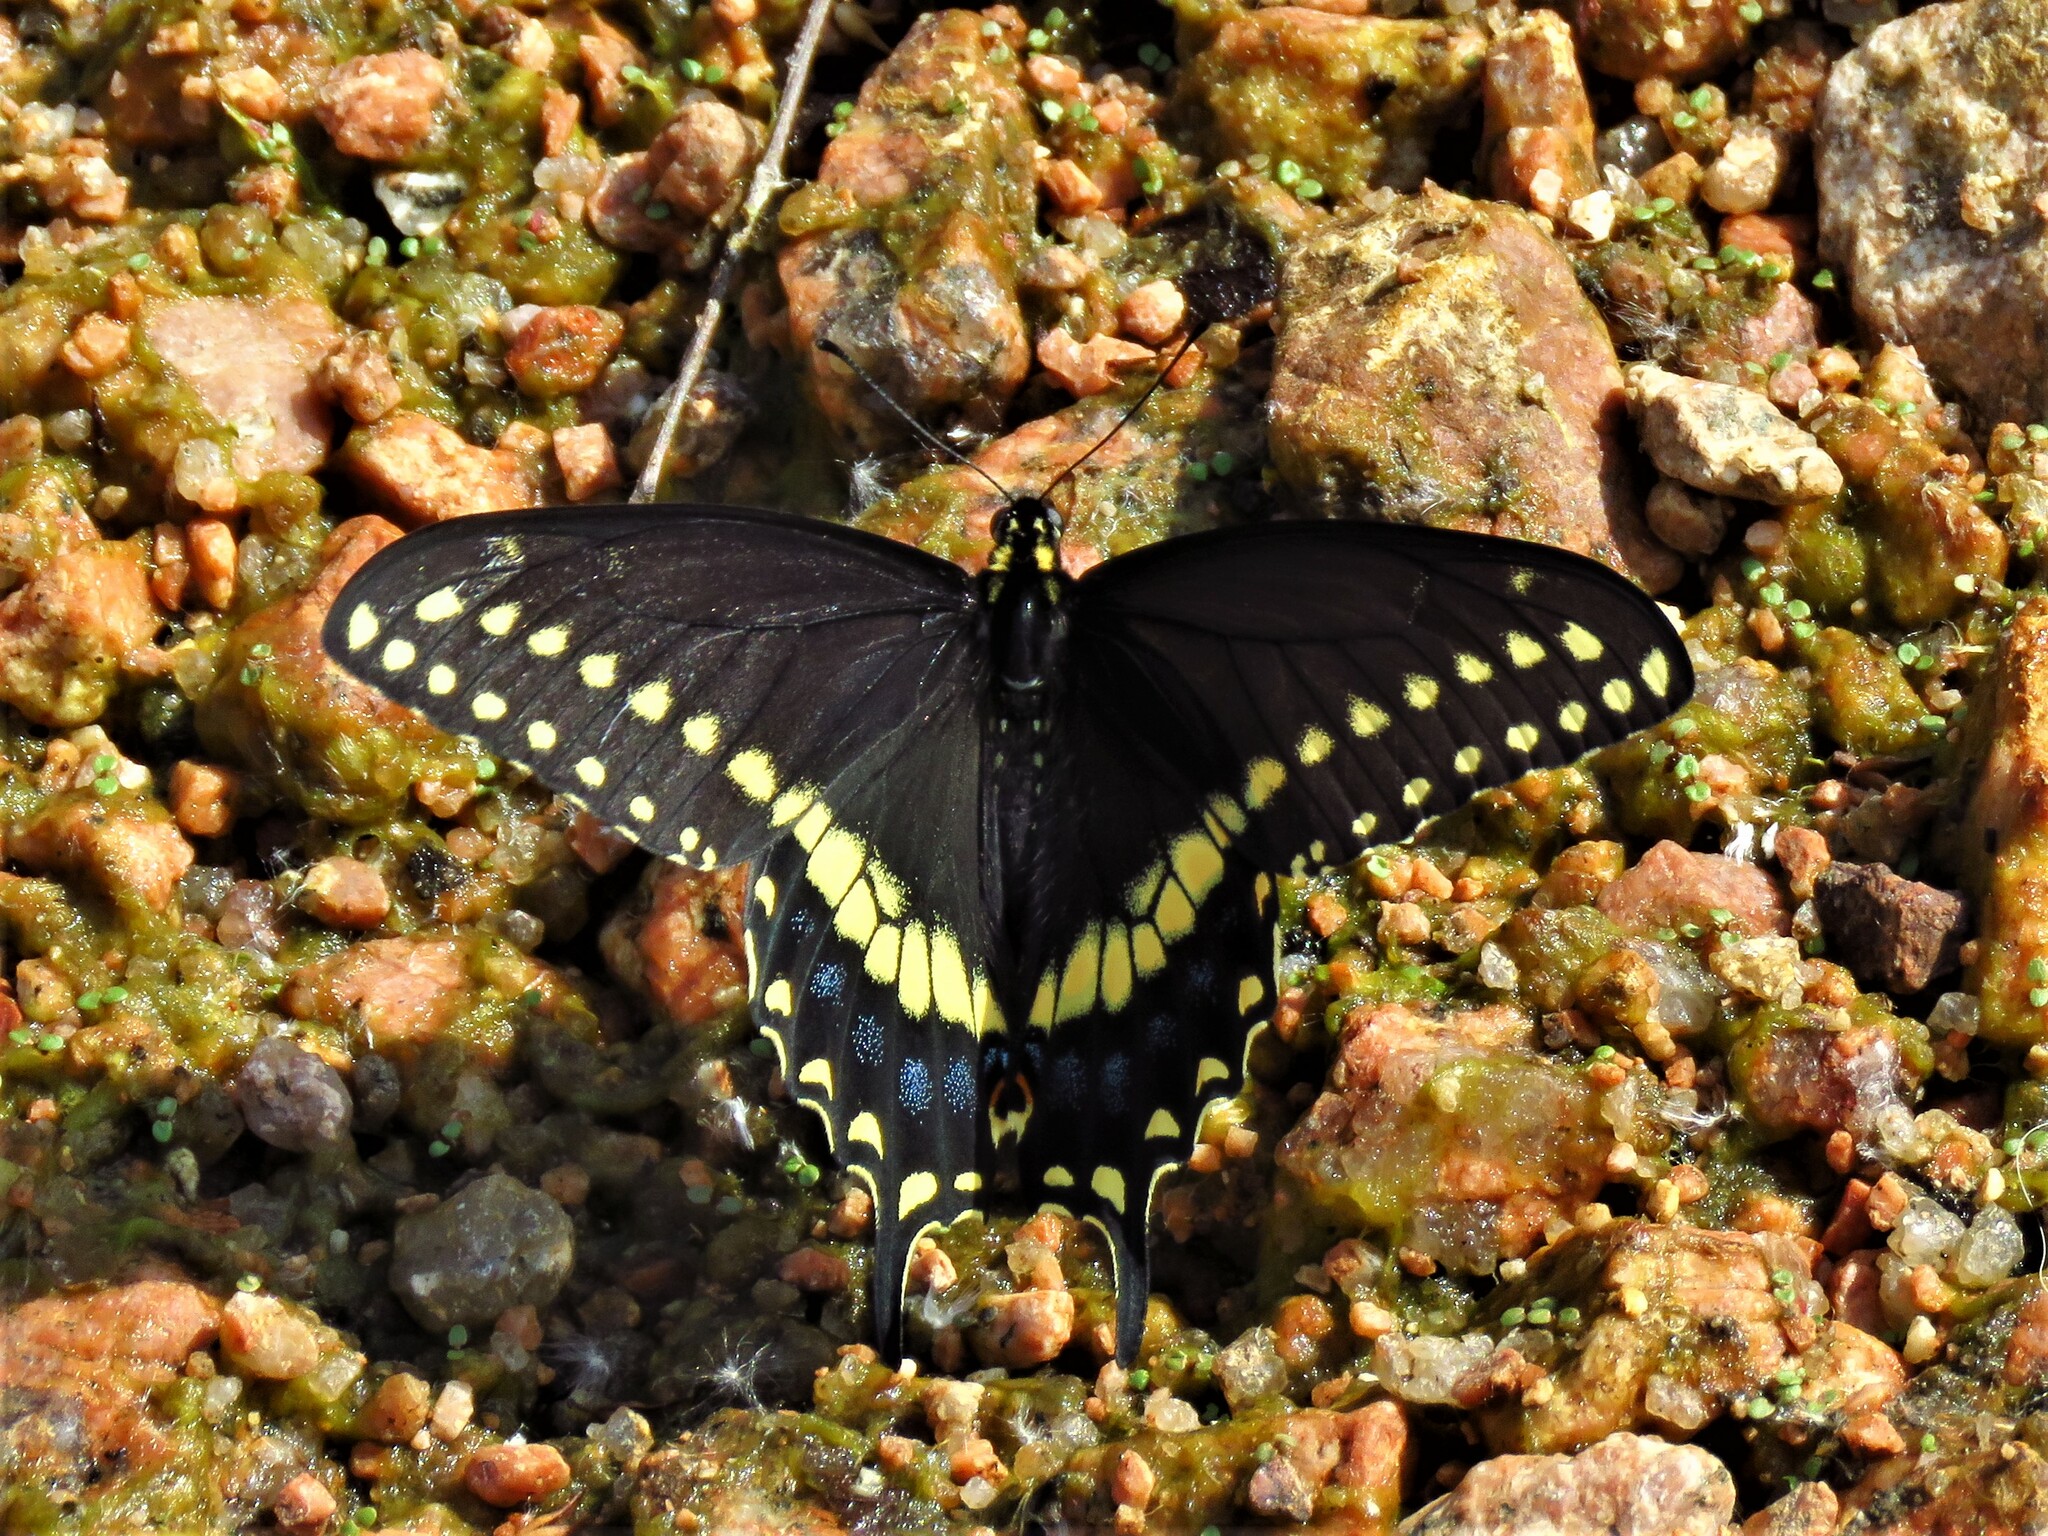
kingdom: Animalia
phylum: Arthropoda
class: Insecta
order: Lepidoptera
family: Papilionidae
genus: Papilio
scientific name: Papilio polyxenes
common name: Black swallowtail
